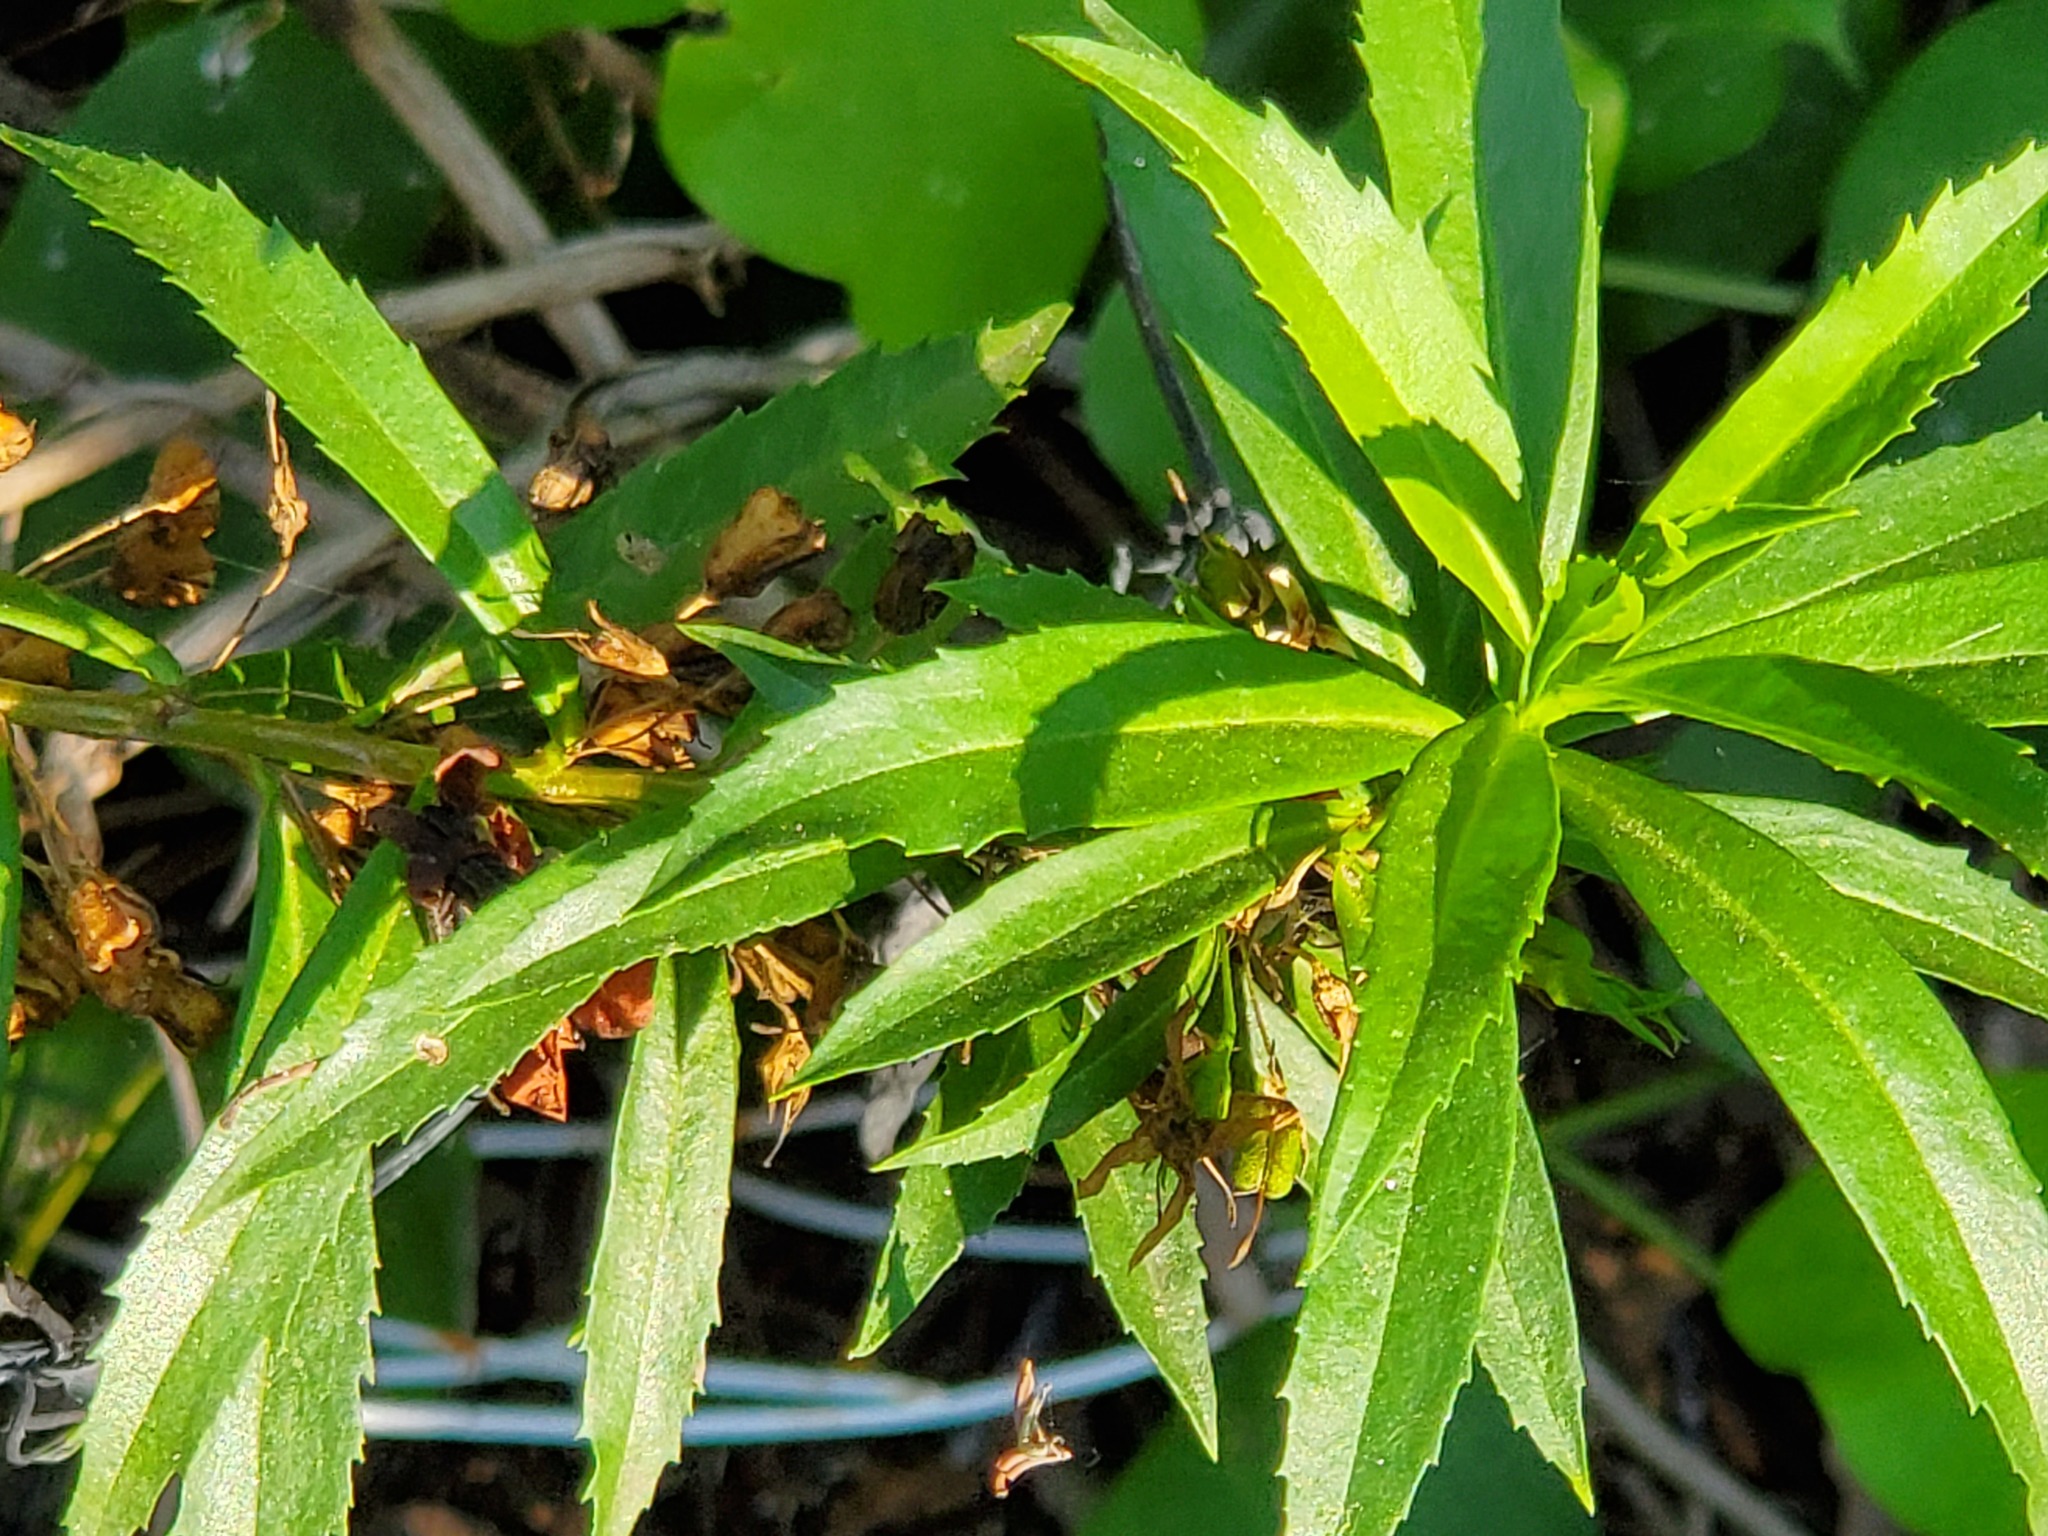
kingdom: Plantae
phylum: Tracheophyta
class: Magnoliopsida
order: Lamiales
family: Scrophulariaceae
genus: Capraria
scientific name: Capraria mexicana
